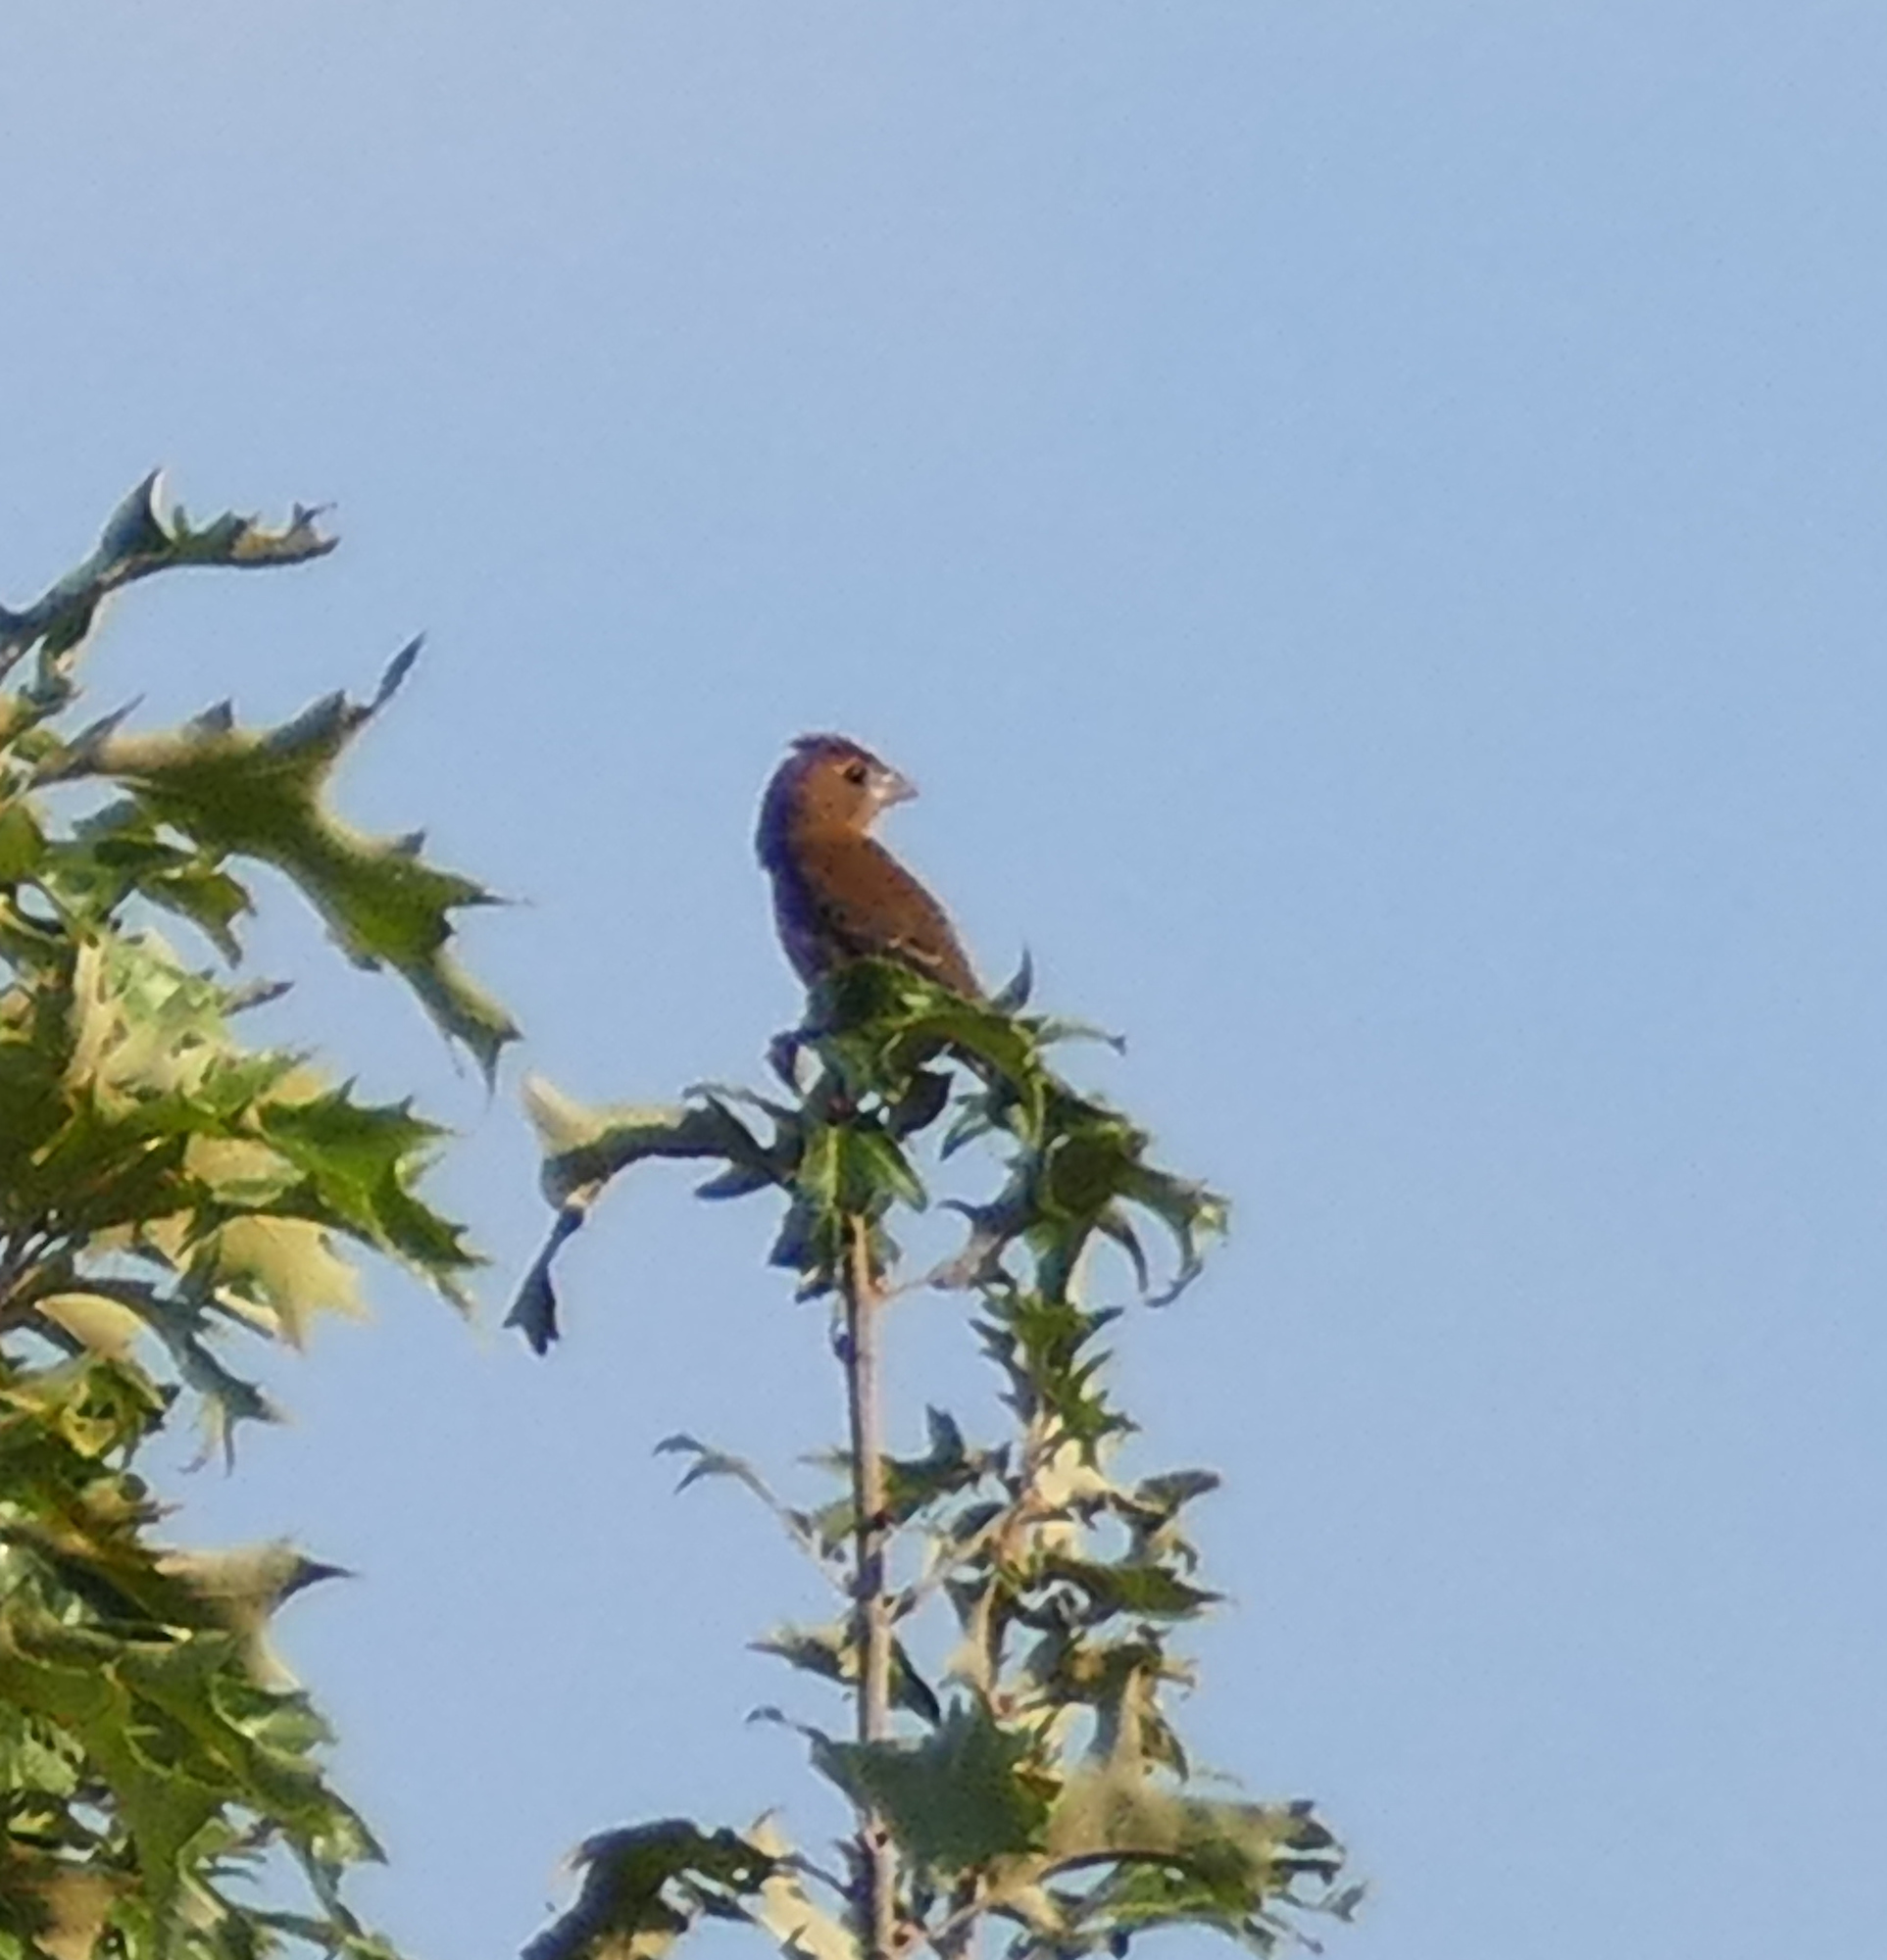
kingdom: Animalia
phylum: Chordata
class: Aves
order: Passeriformes
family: Cardinalidae
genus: Passerina
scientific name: Passerina caerulea
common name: Blue grosbeak
